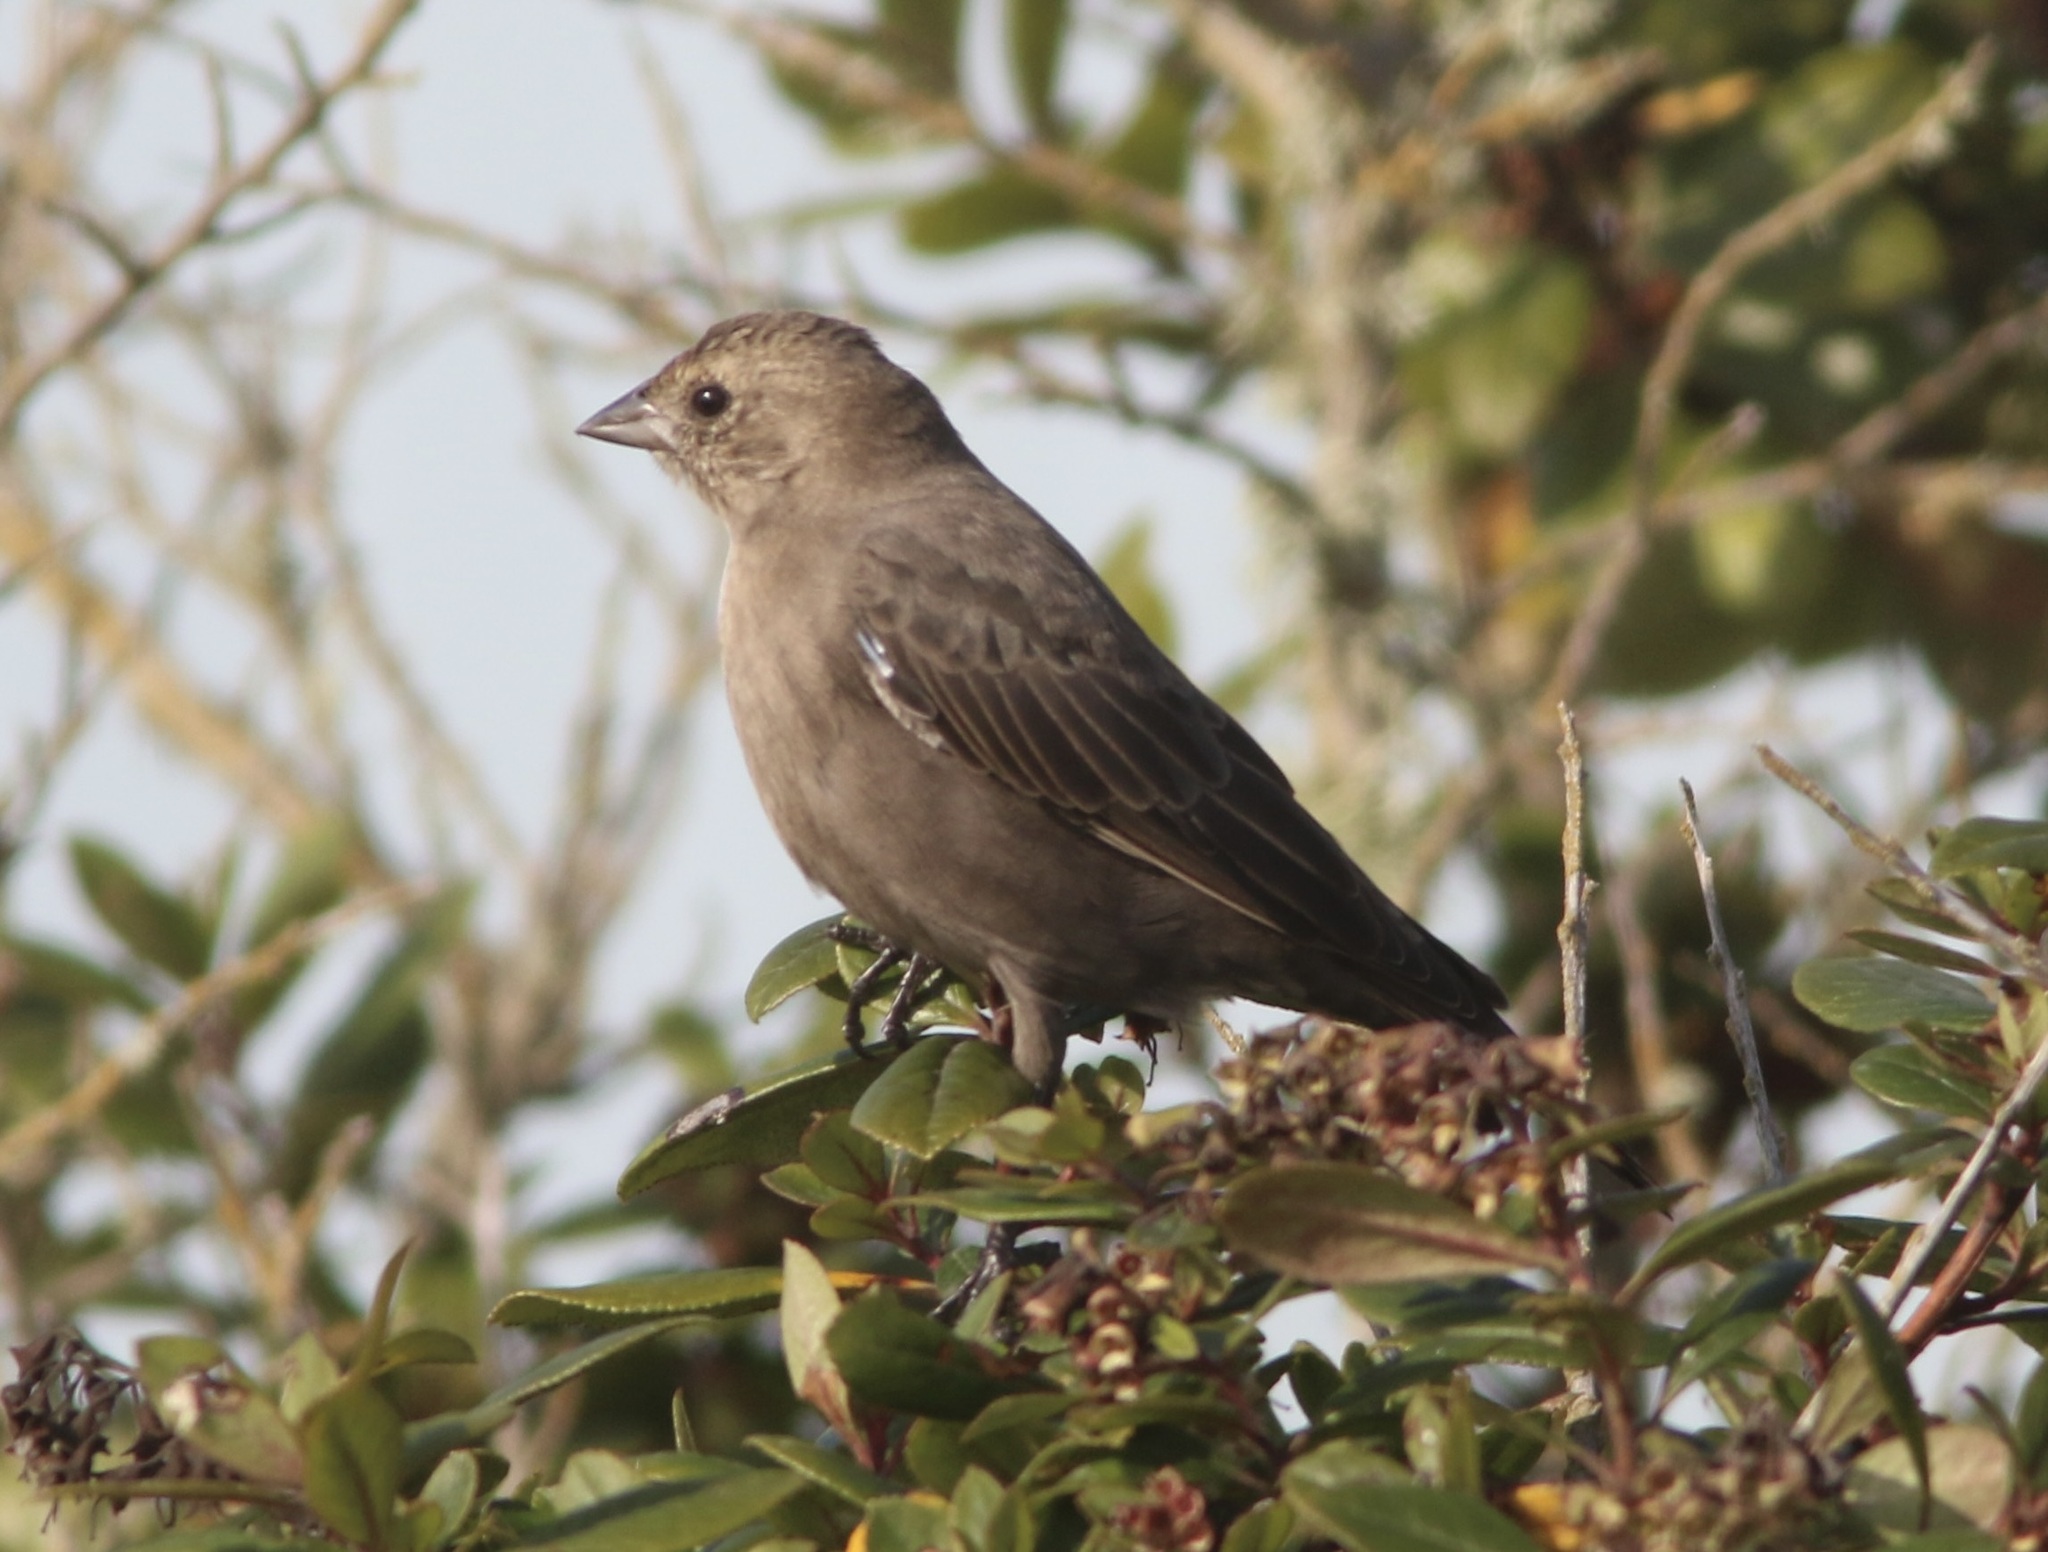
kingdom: Animalia
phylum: Chordata
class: Aves
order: Passeriformes
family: Icteridae
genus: Molothrus
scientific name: Molothrus ater
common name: Brown-headed cowbird
